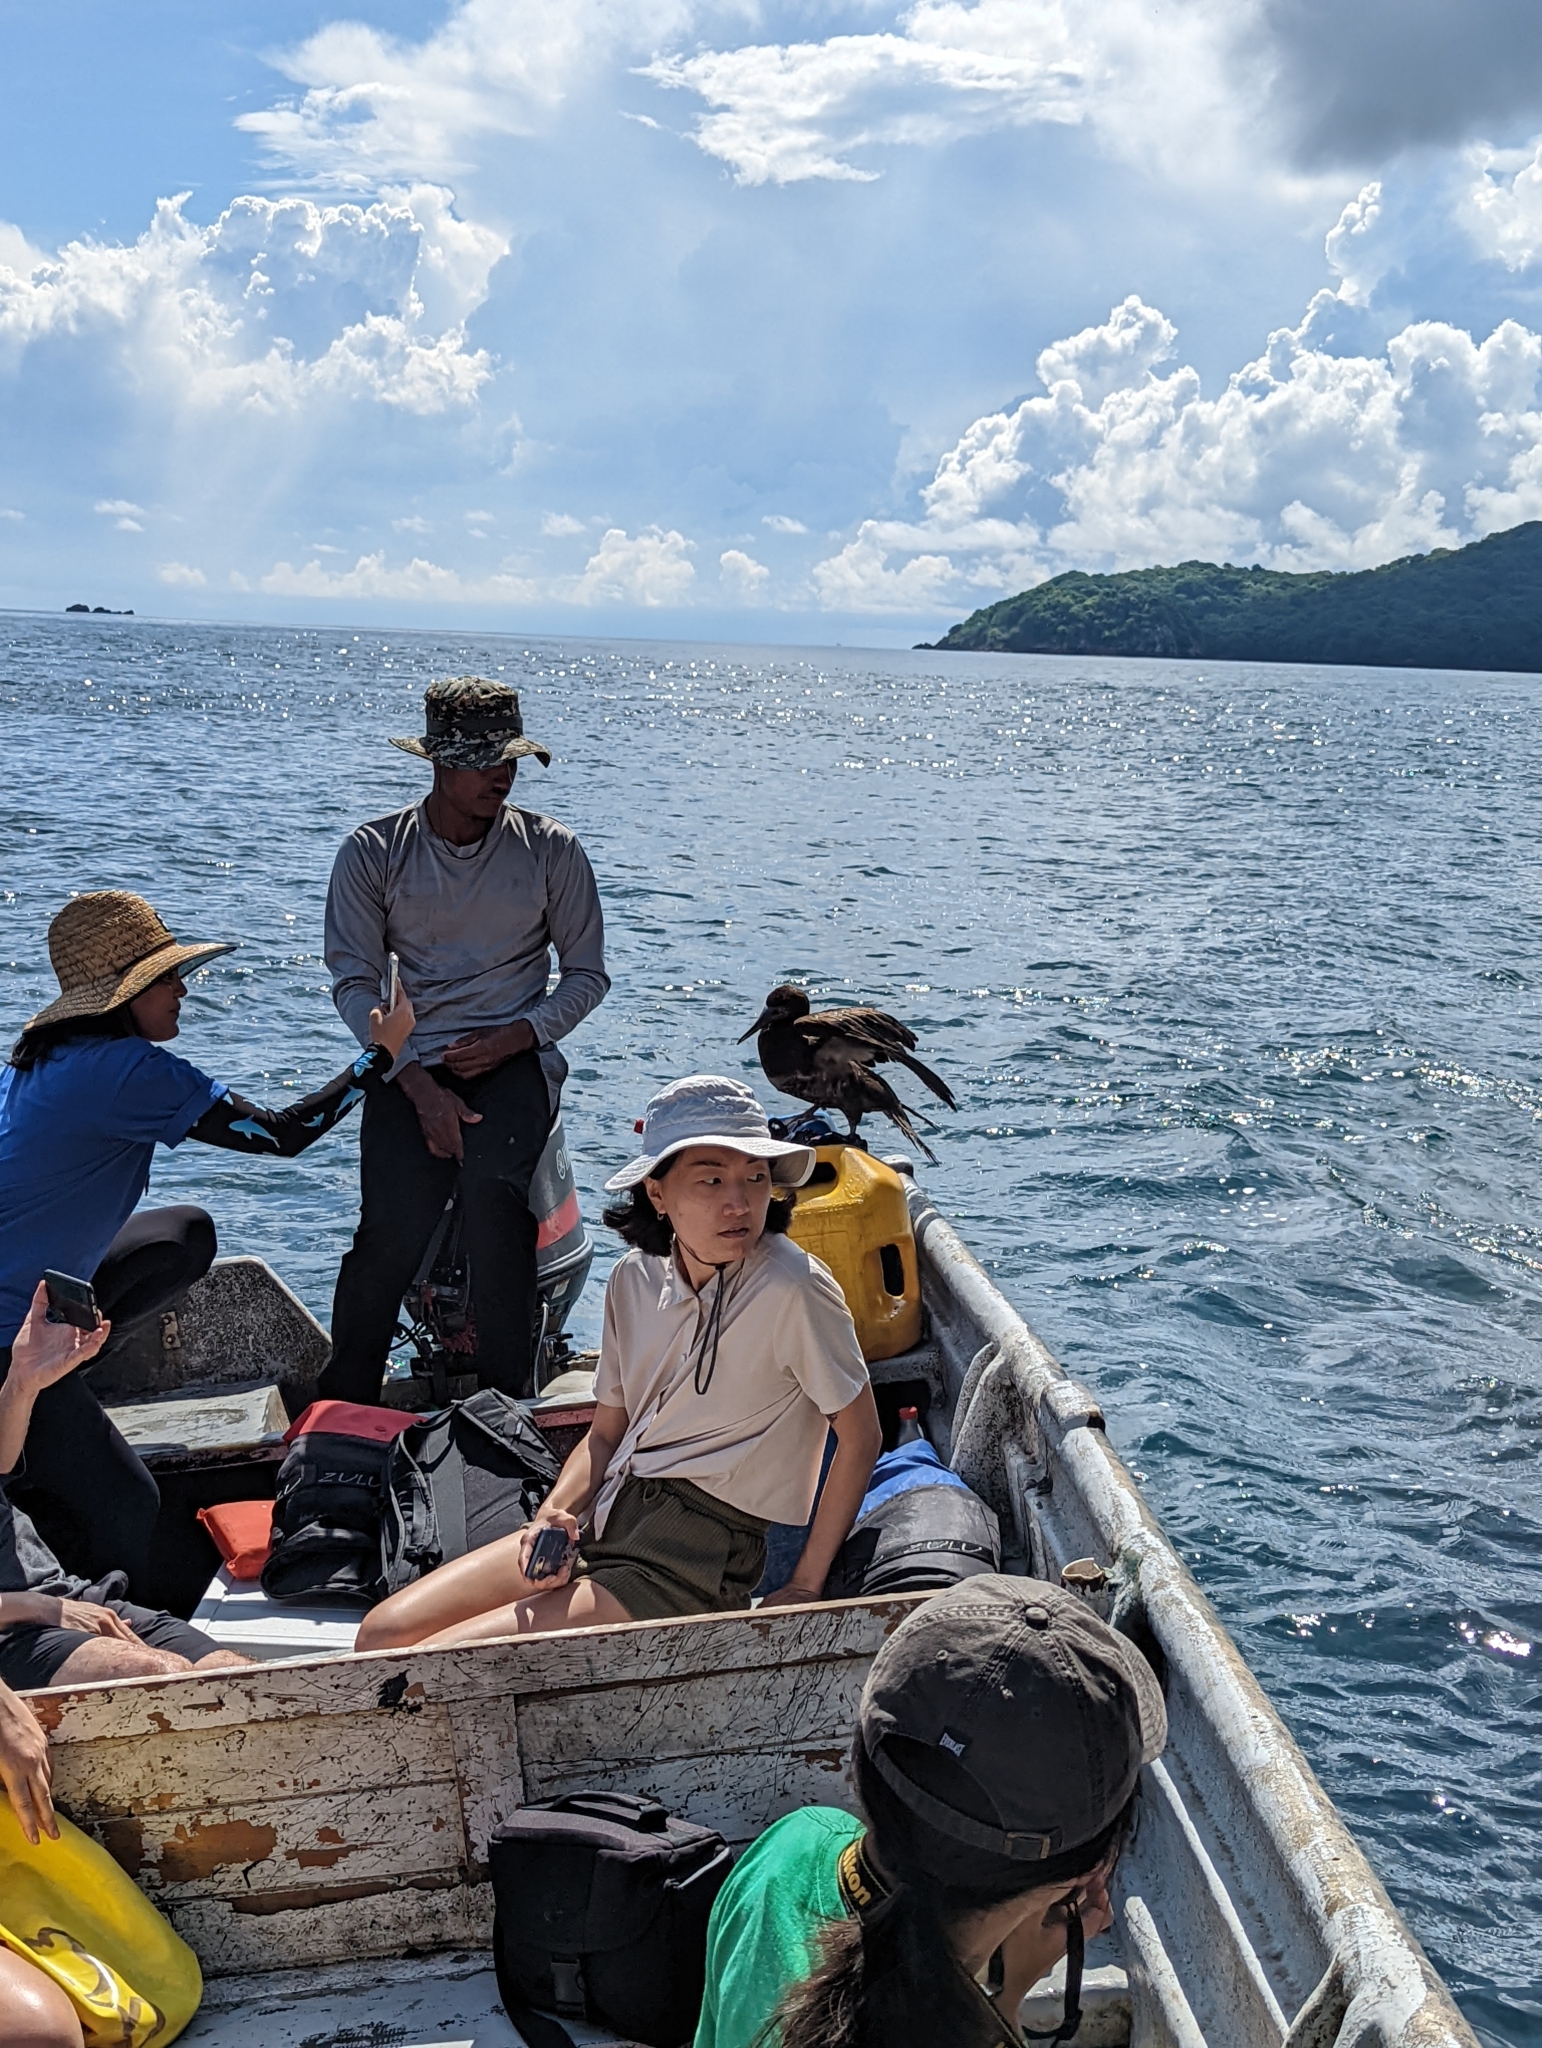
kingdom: Animalia
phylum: Chordata
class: Aves
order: Suliformes
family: Sulidae
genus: Sula
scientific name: Sula leucogaster
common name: Brown booby
